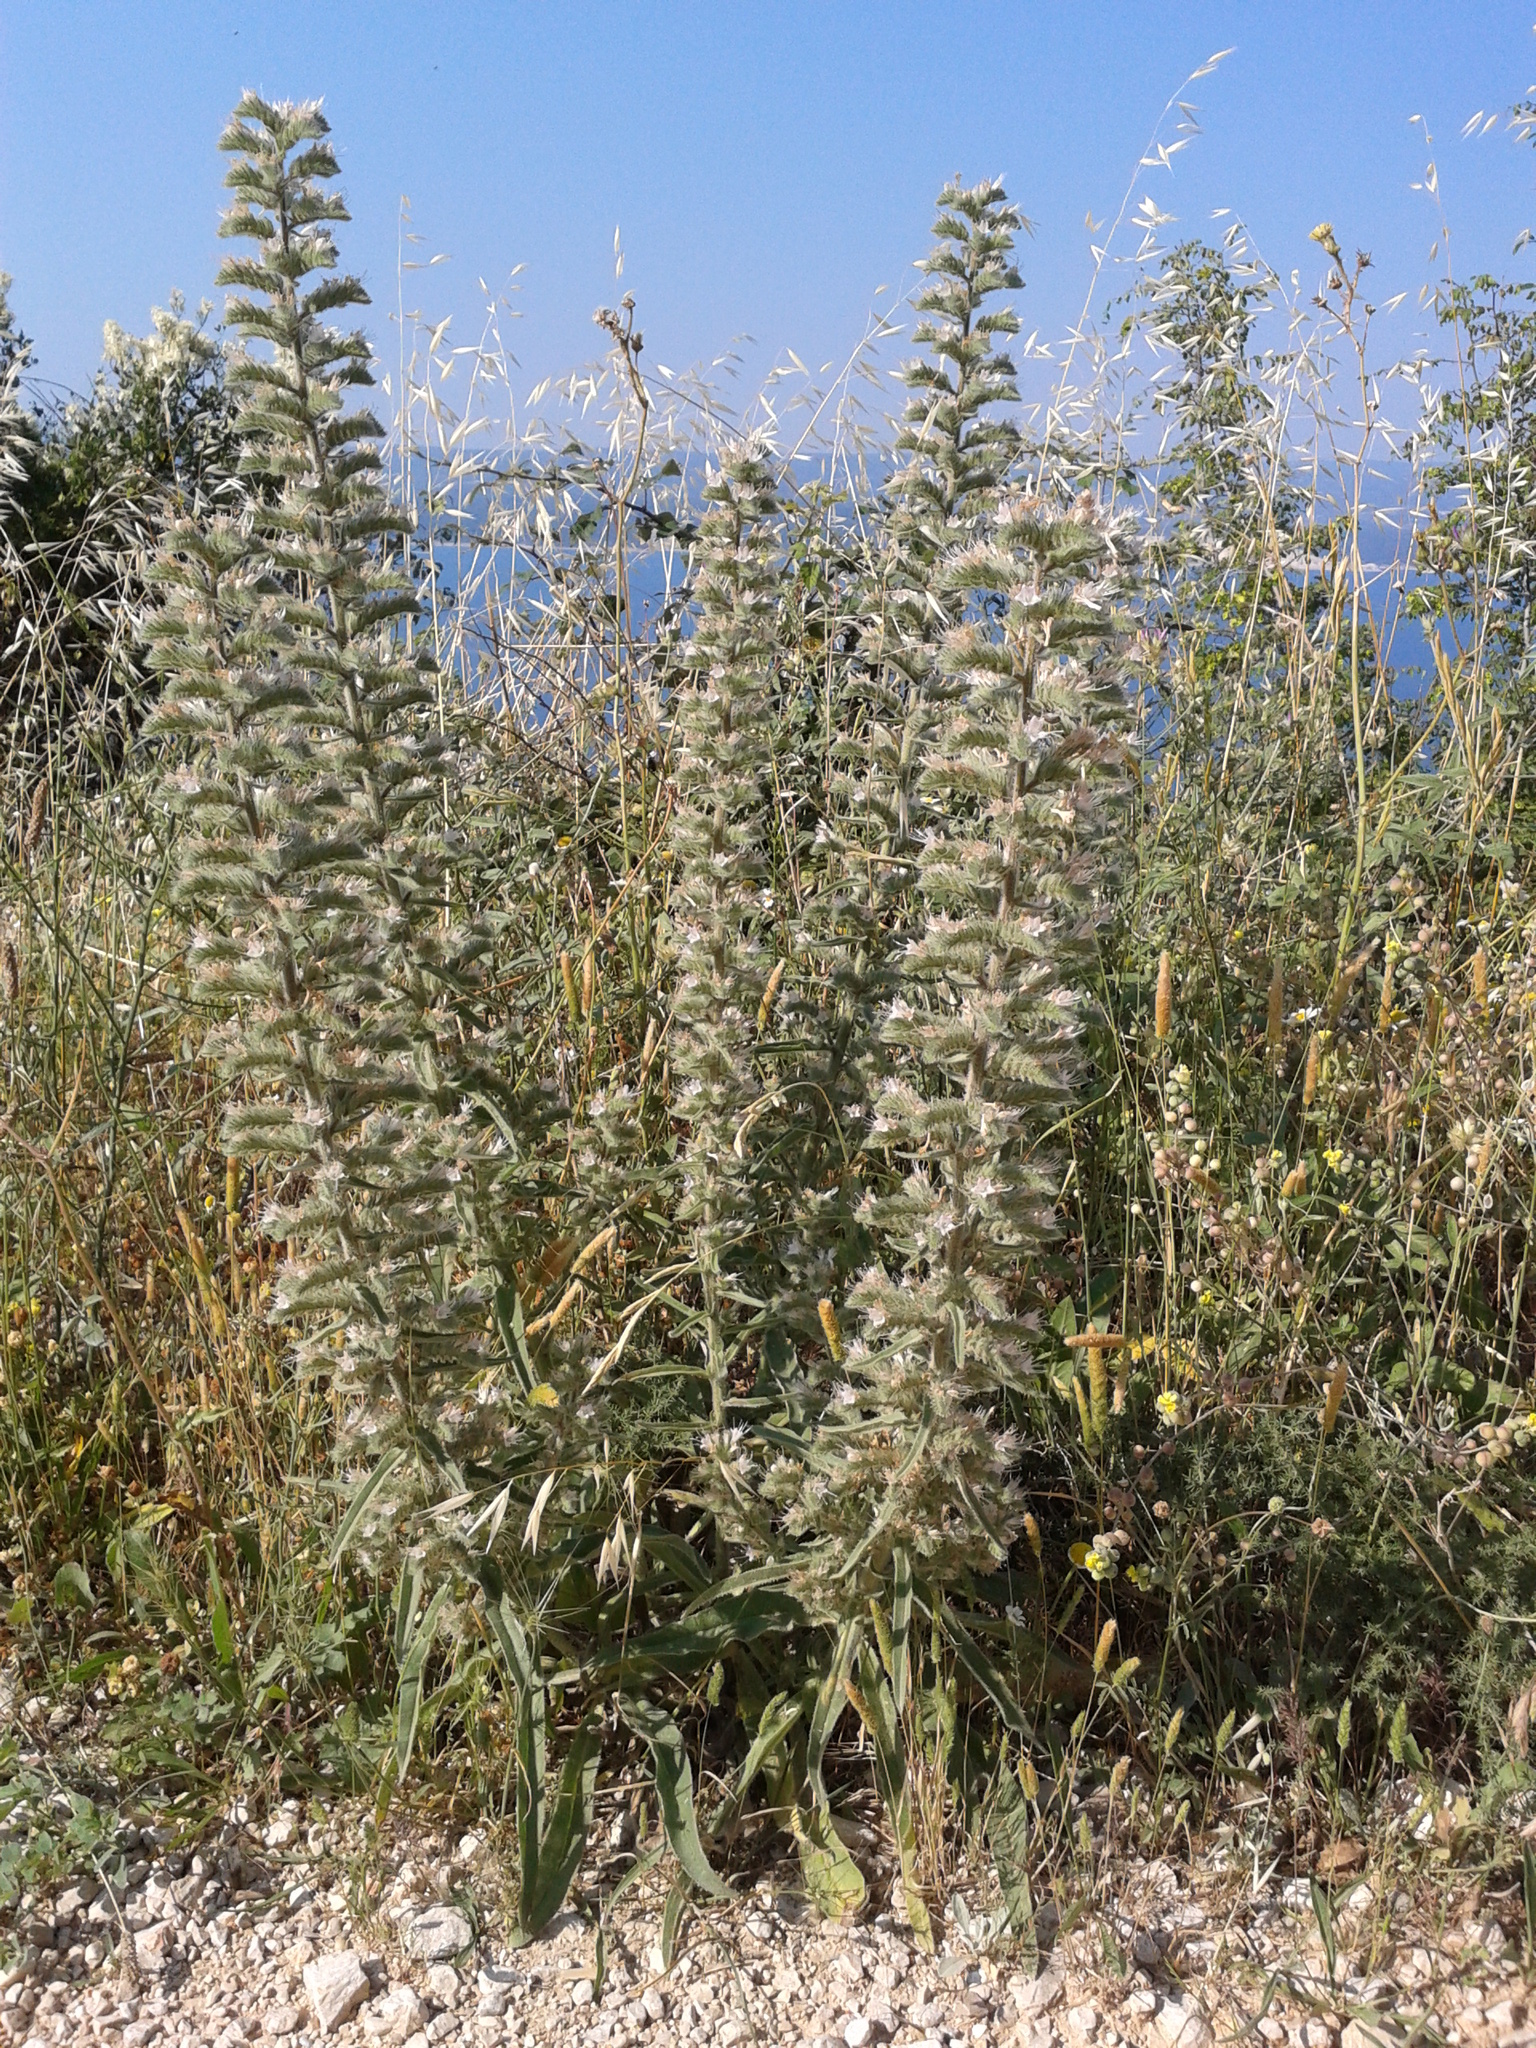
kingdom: Plantae
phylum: Tracheophyta
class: Magnoliopsida
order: Boraginales
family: Boraginaceae
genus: Echium
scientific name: Echium italicum
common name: Italian viper's bugloss
